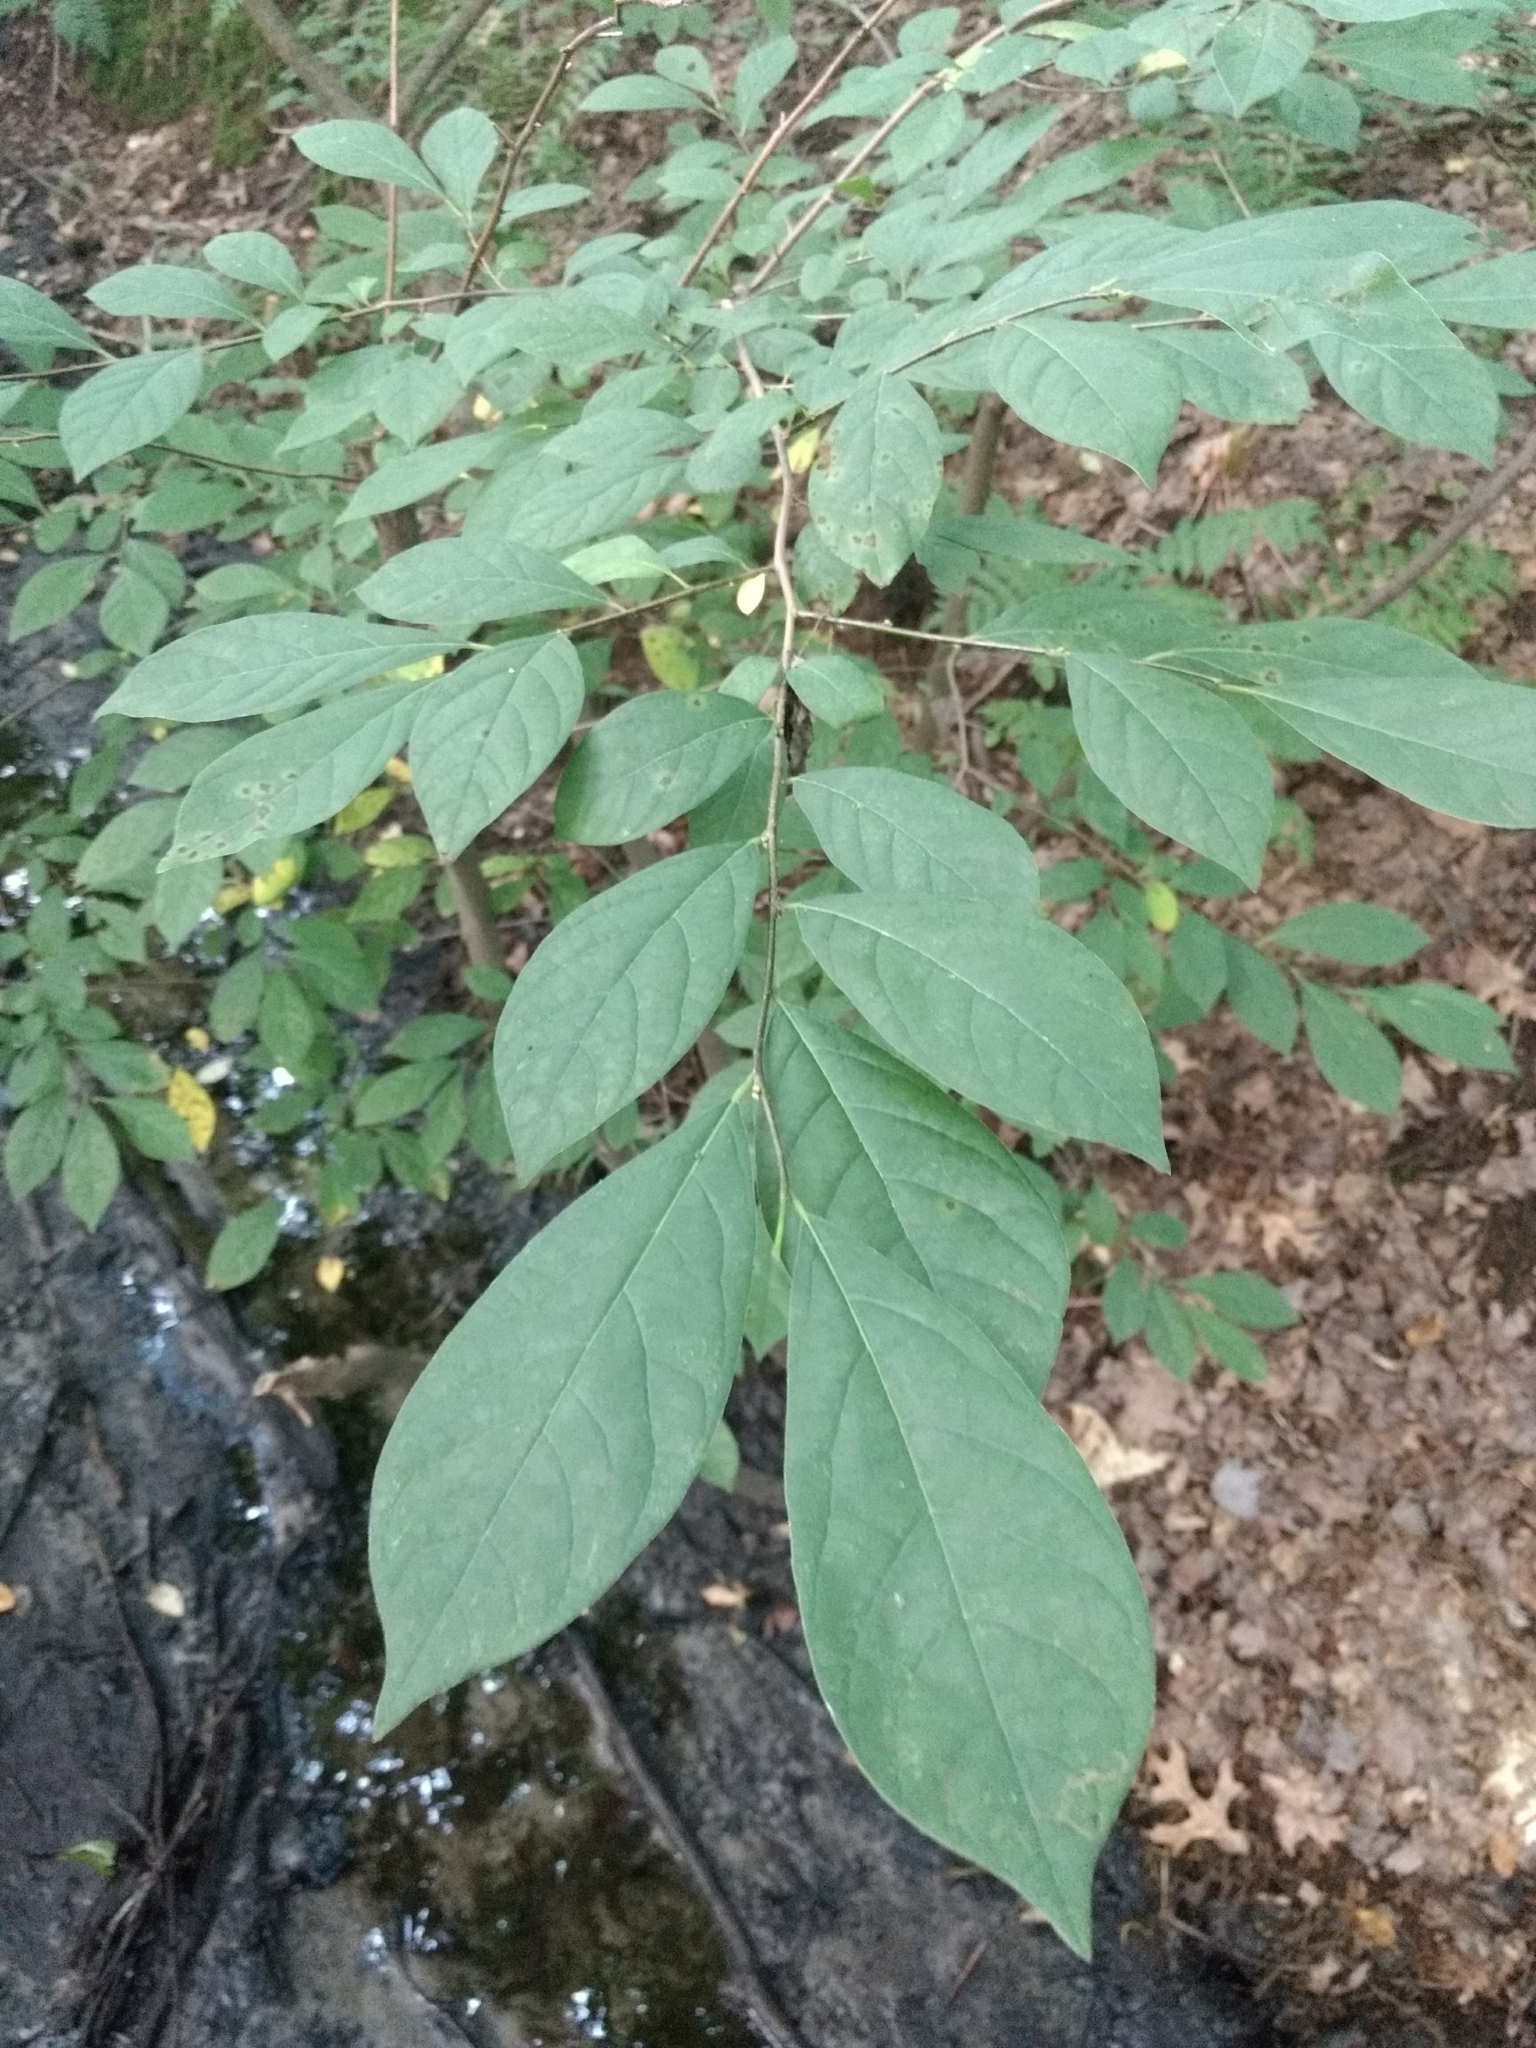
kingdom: Plantae
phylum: Tracheophyta
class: Magnoliopsida
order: Laurales
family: Lauraceae
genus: Lindera
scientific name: Lindera benzoin
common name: Spicebush
